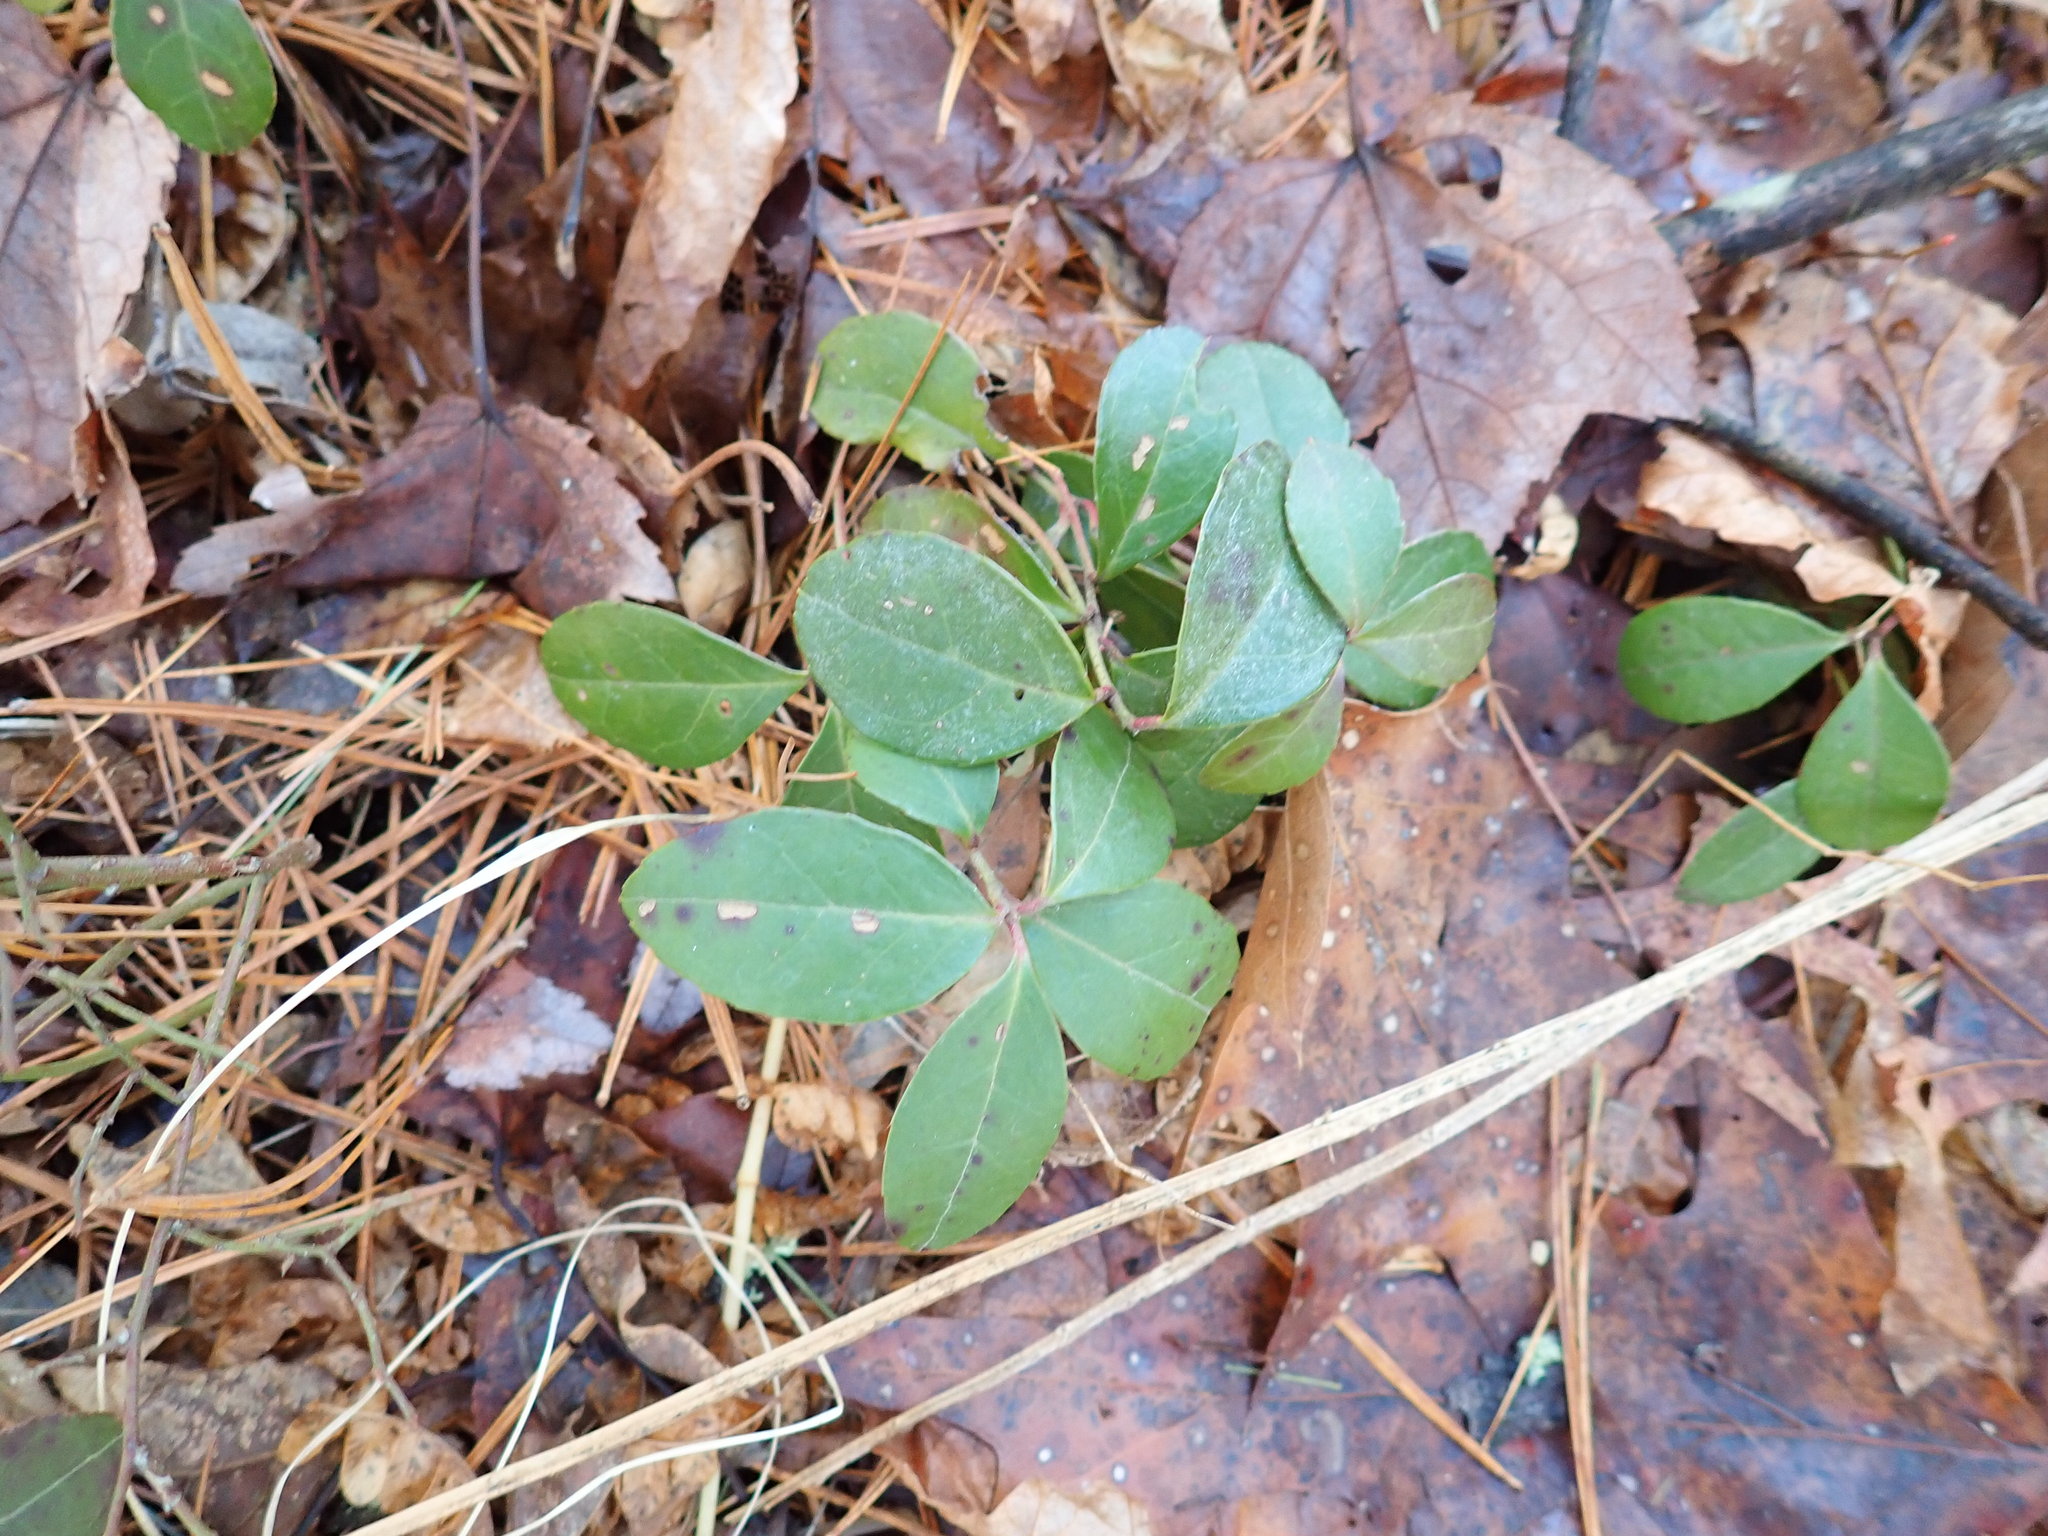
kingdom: Plantae
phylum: Tracheophyta
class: Magnoliopsida
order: Ericales
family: Ericaceae
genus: Gaultheria
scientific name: Gaultheria procumbens
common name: Checkerberry
